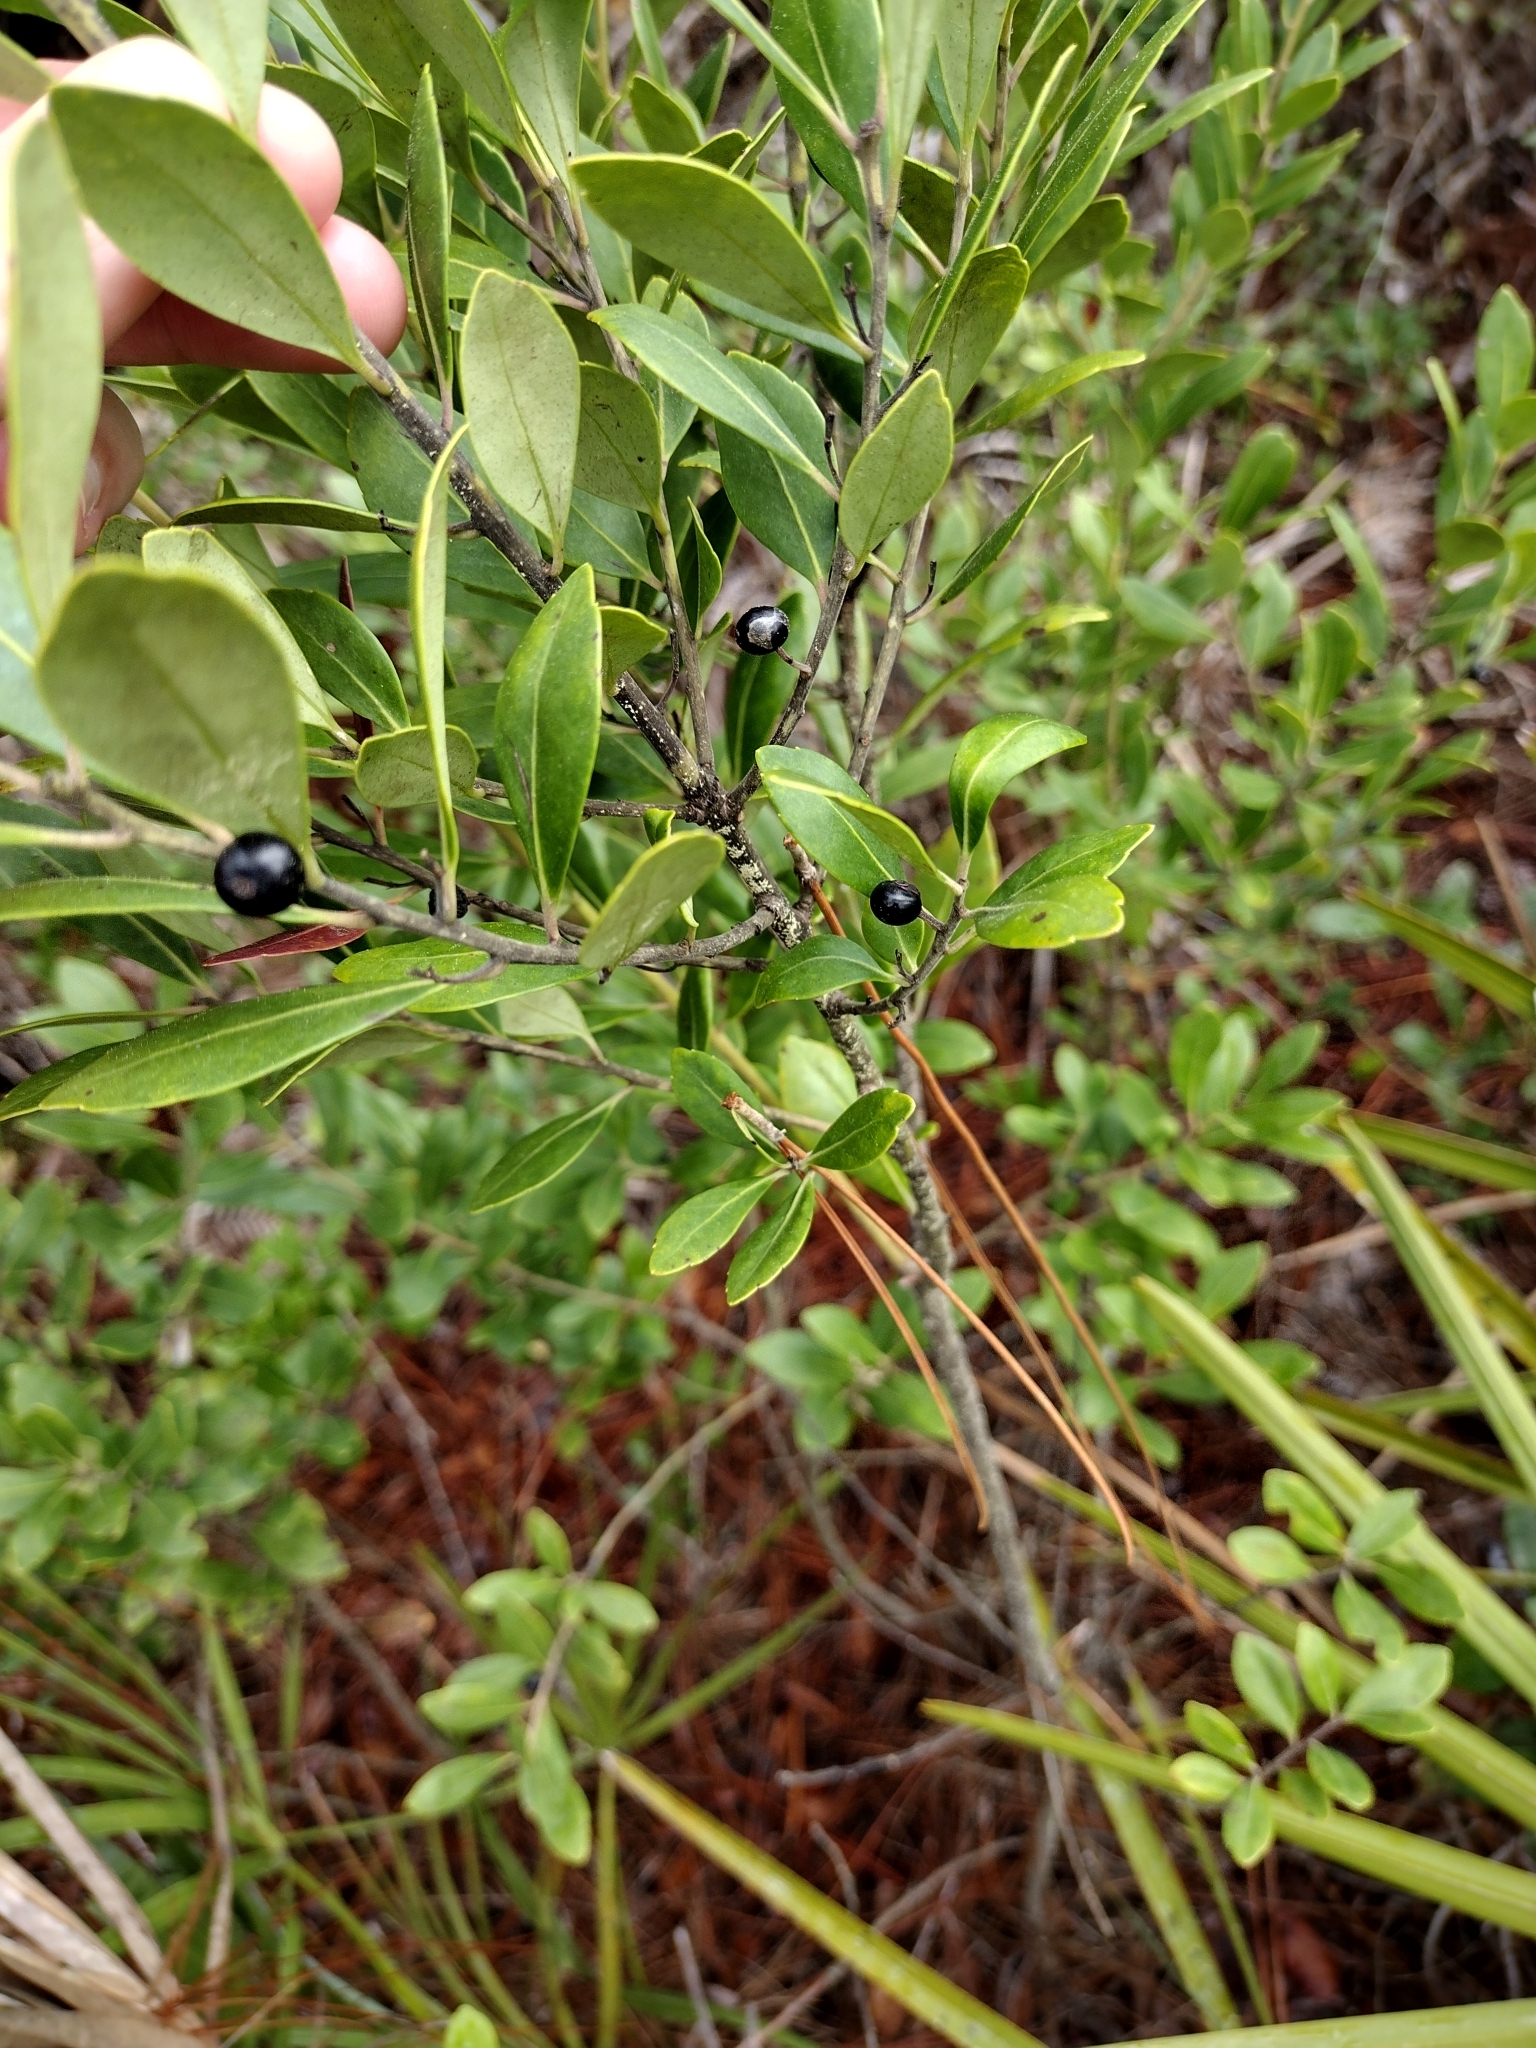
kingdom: Plantae
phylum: Tracheophyta
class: Magnoliopsida
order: Aquifoliales
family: Aquifoliaceae
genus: Ilex
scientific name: Ilex glabra
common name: Bitter gallberry
